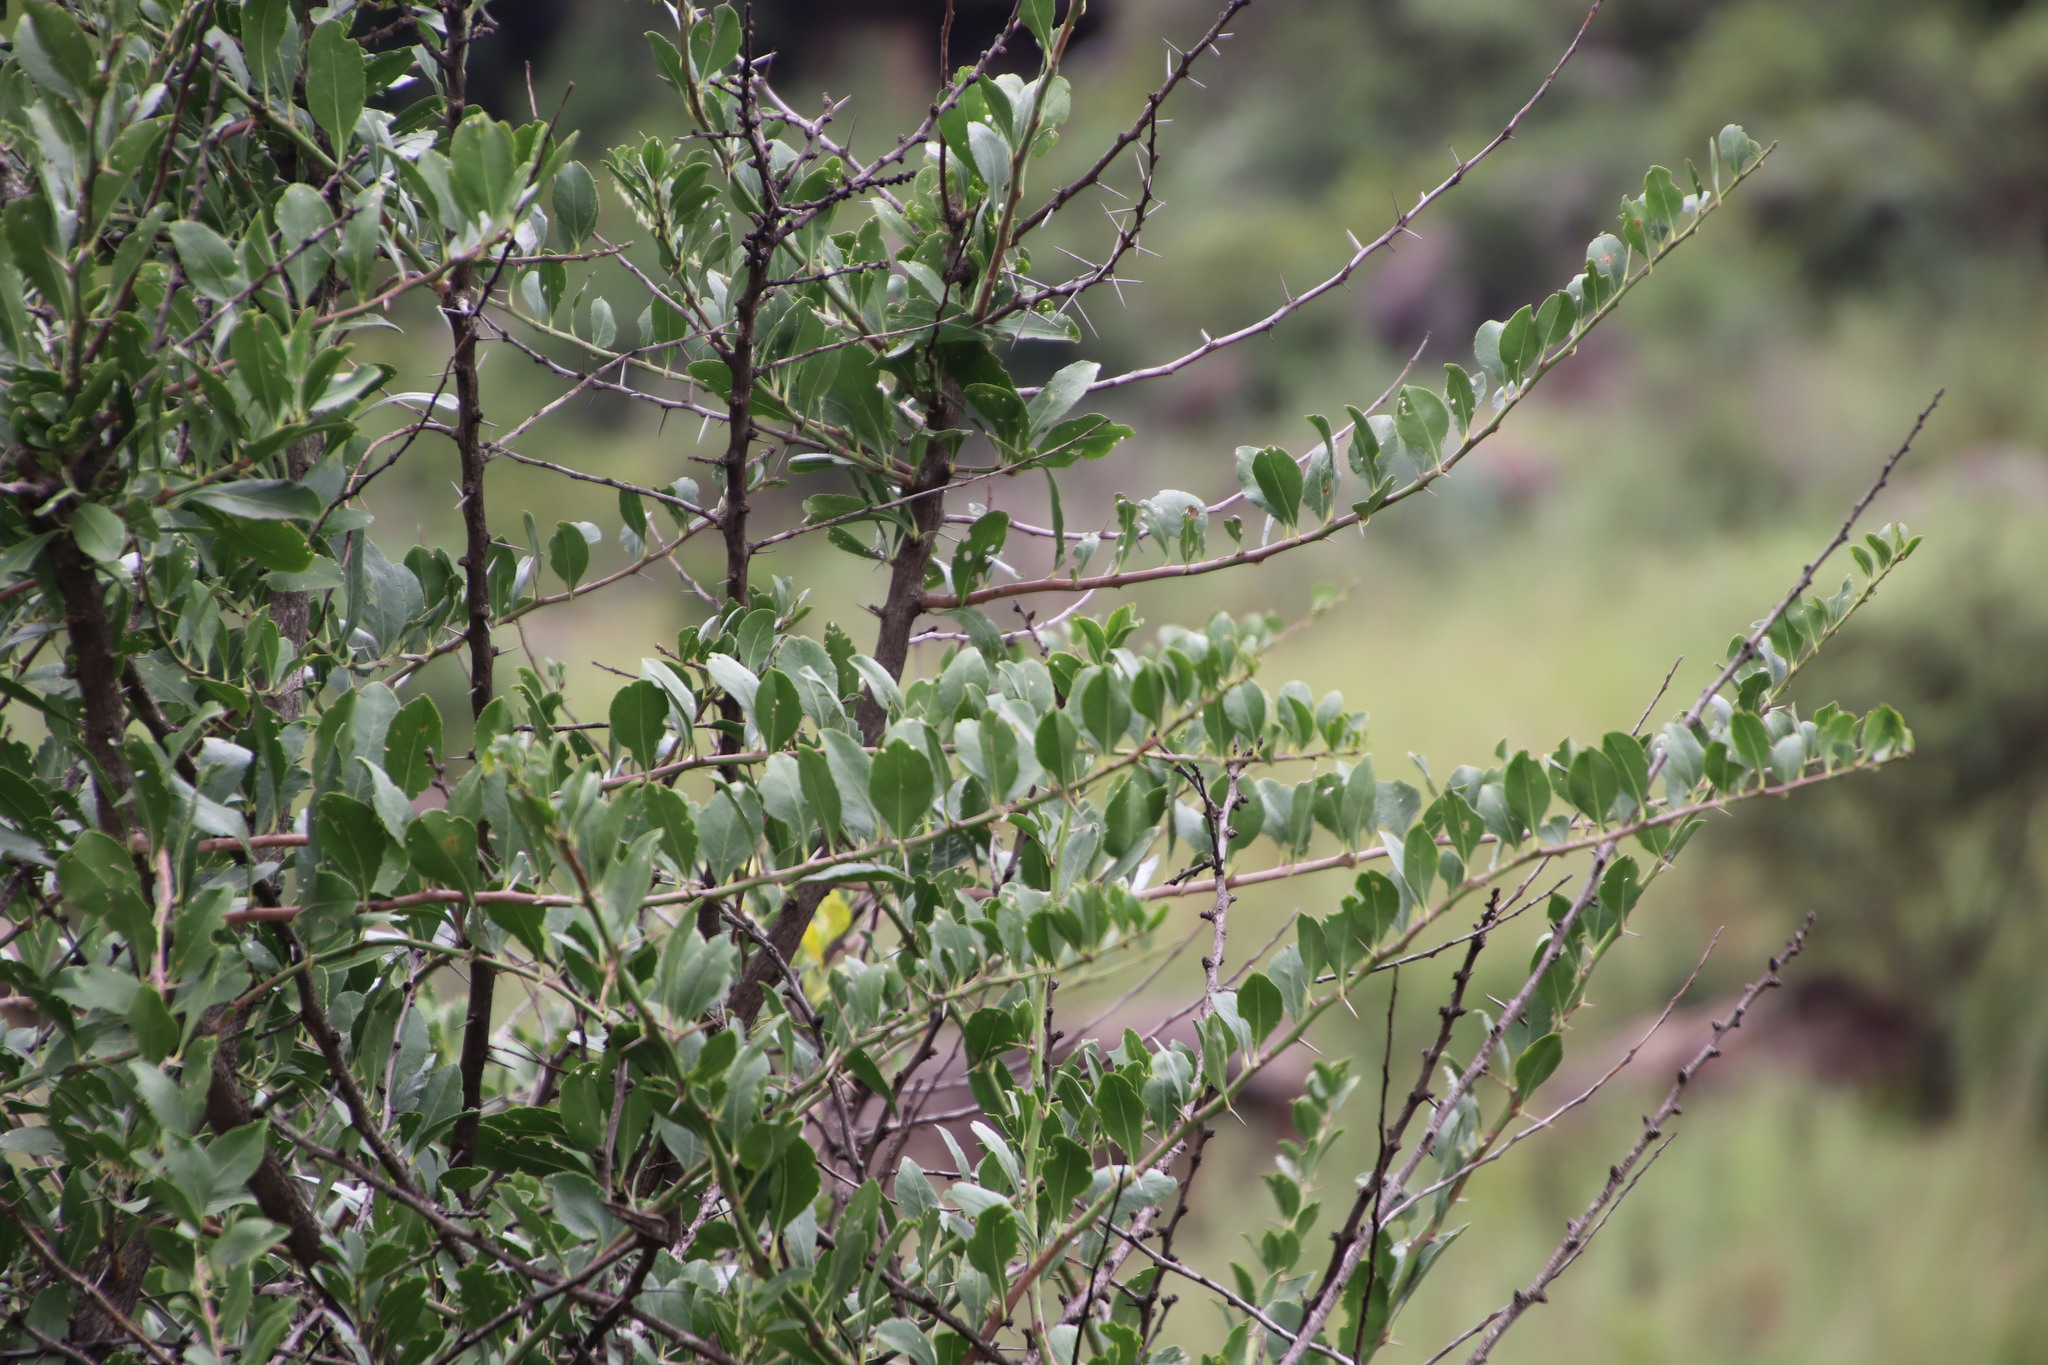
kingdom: Plantae
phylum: Tracheophyta
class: Magnoliopsida
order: Celastrales
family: Celastraceae
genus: Gymnosporia
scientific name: Gymnosporia buxifolia
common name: Common spike-thorn
